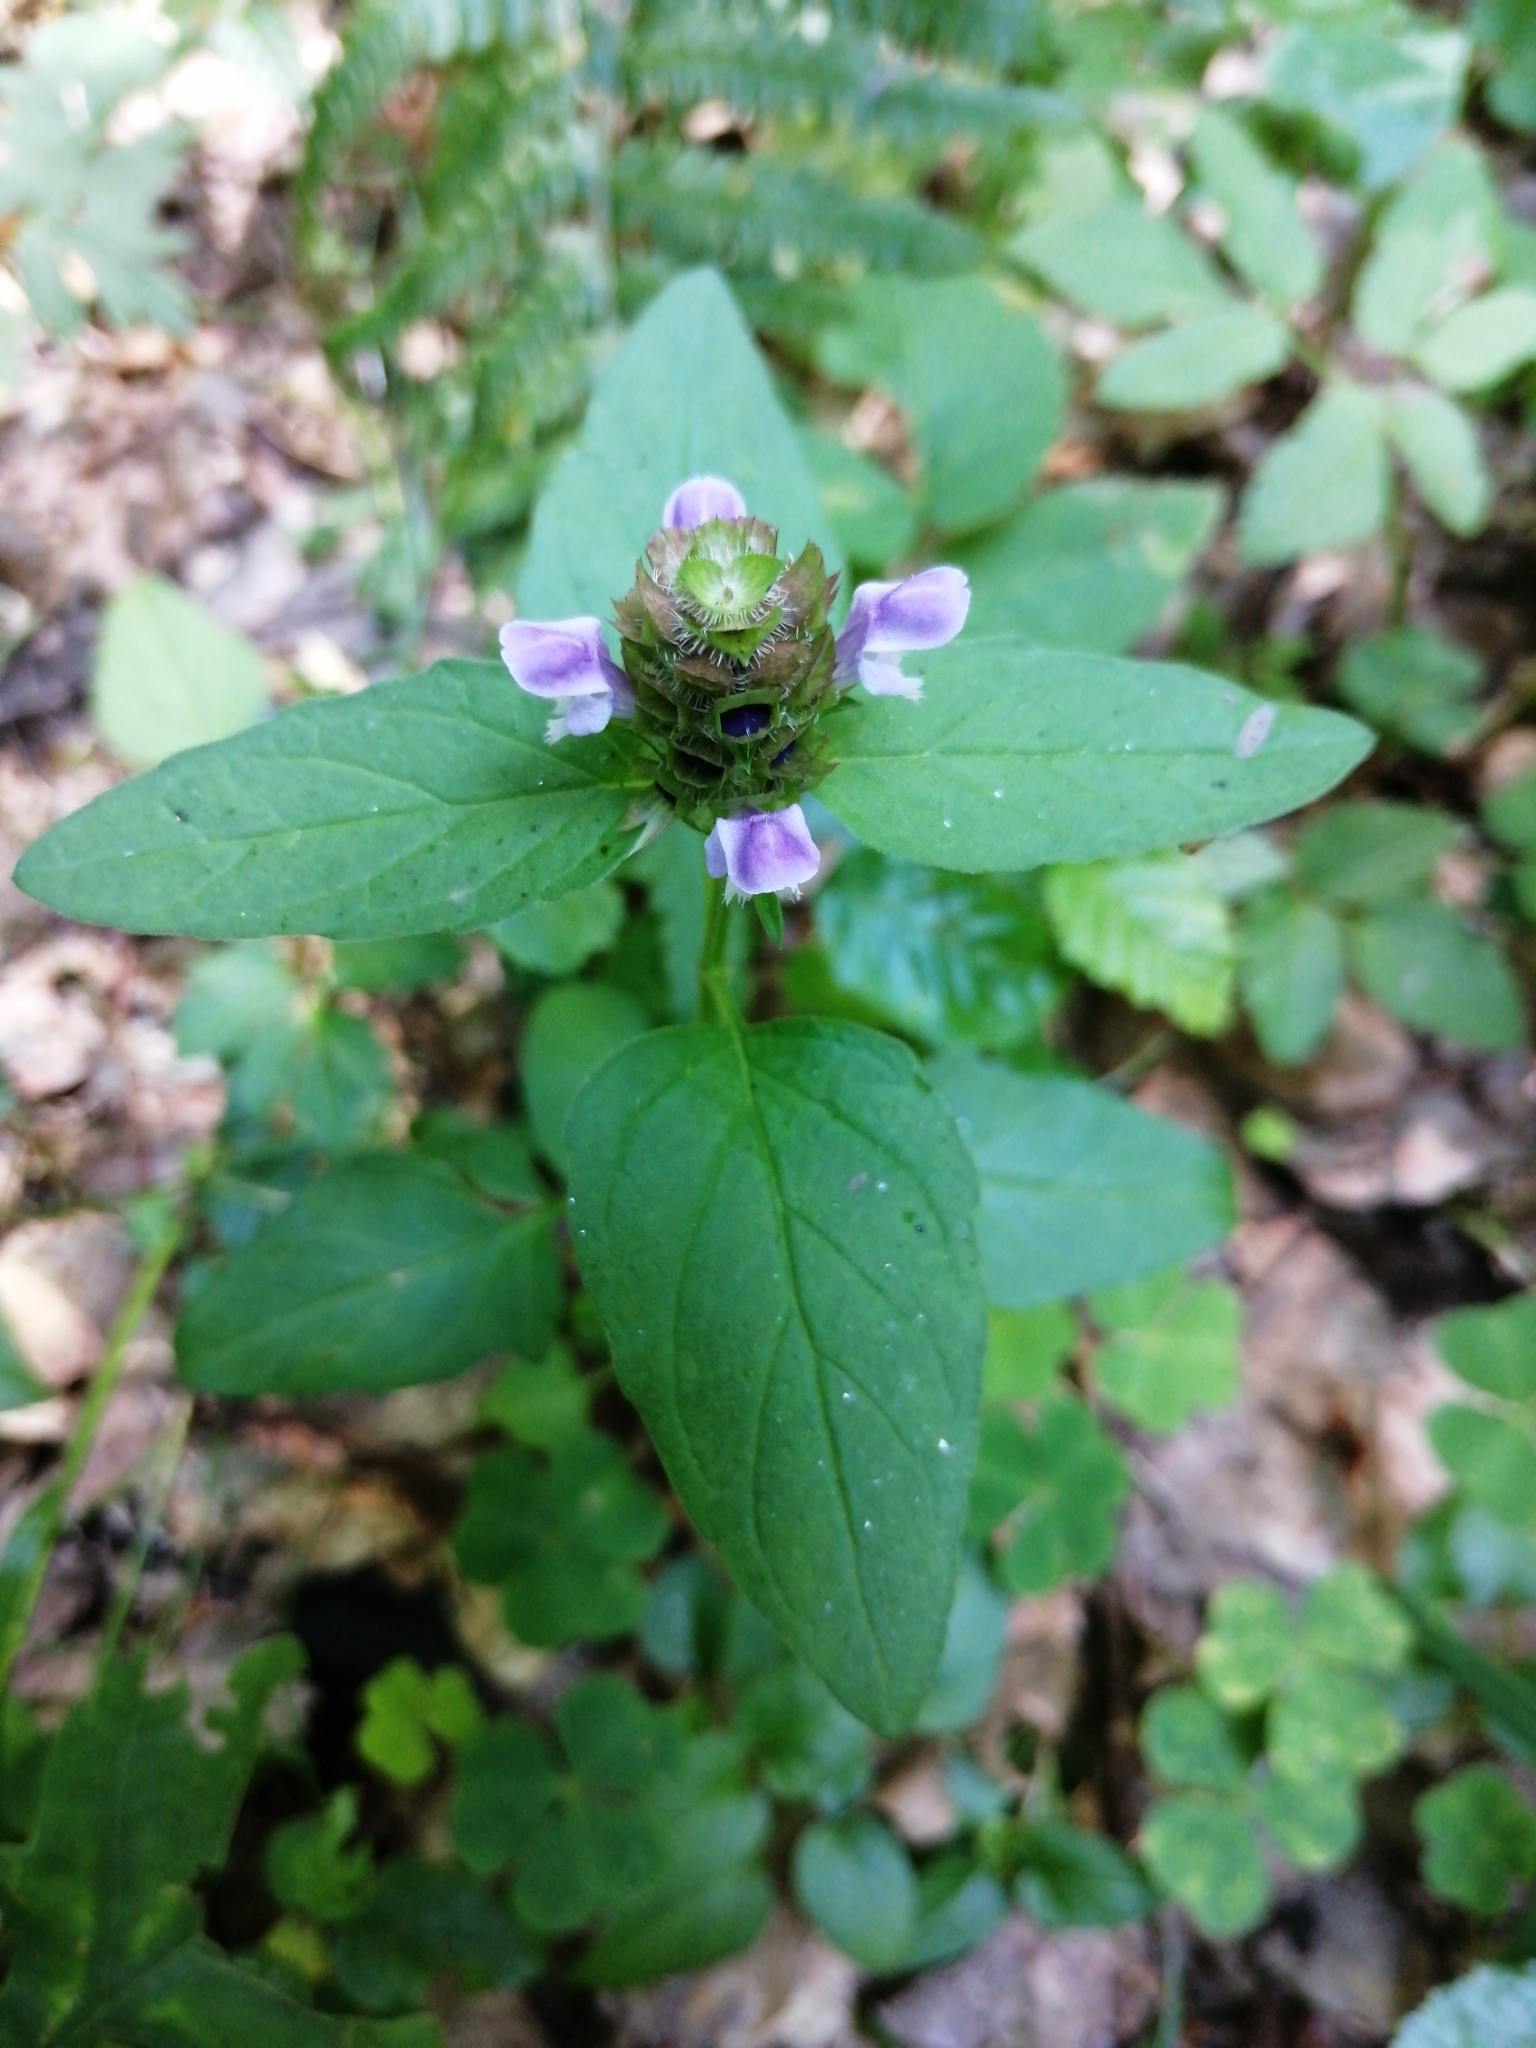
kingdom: Plantae
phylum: Tracheophyta
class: Magnoliopsida
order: Lamiales
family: Lamiaceae
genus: Prunella
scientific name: Prunella vulgaris
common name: Heal-all
